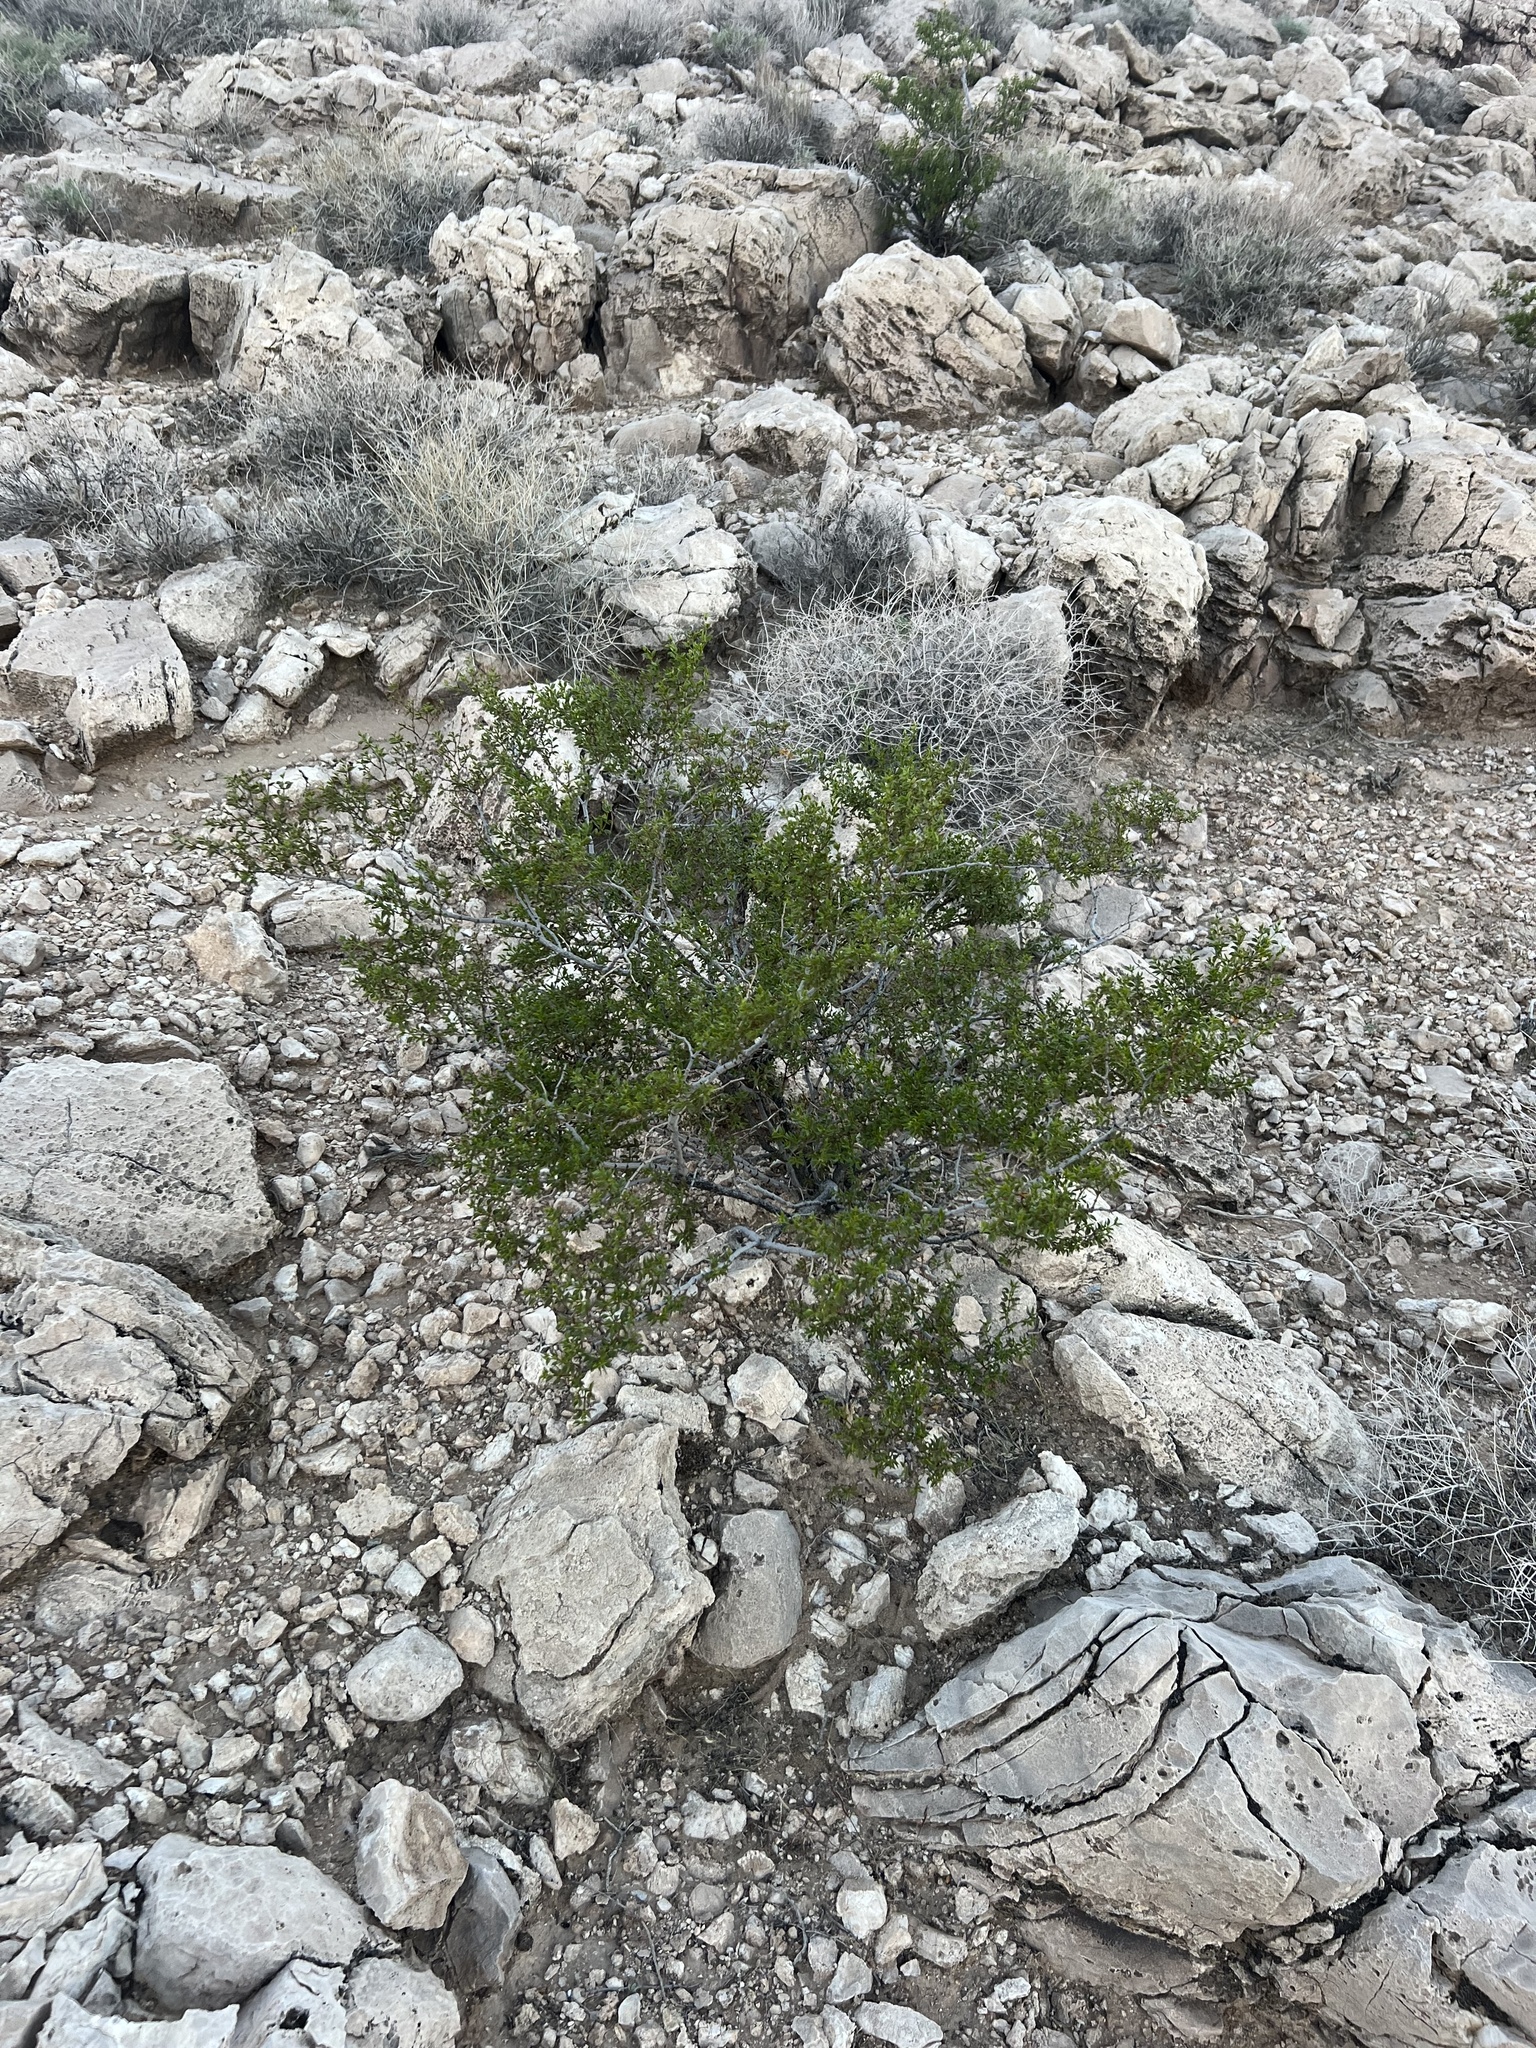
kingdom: Plantae
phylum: Tracheophyta
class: Magnoliopsida
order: Zygophyllales
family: Zygophyllaceae
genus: Larrea
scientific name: Larrea tridentata
